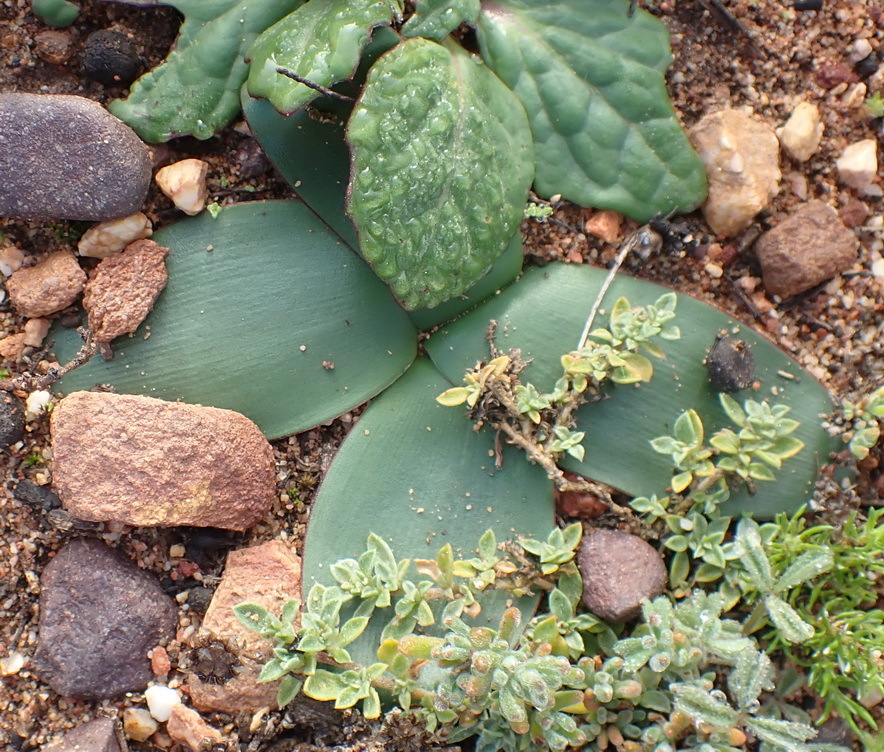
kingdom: Plantae
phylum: Tracheophyta
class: Liliopsida
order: Asparagales
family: Amaryllidaceae
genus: Brunsvigia
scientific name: Brunsvigia nervosa
